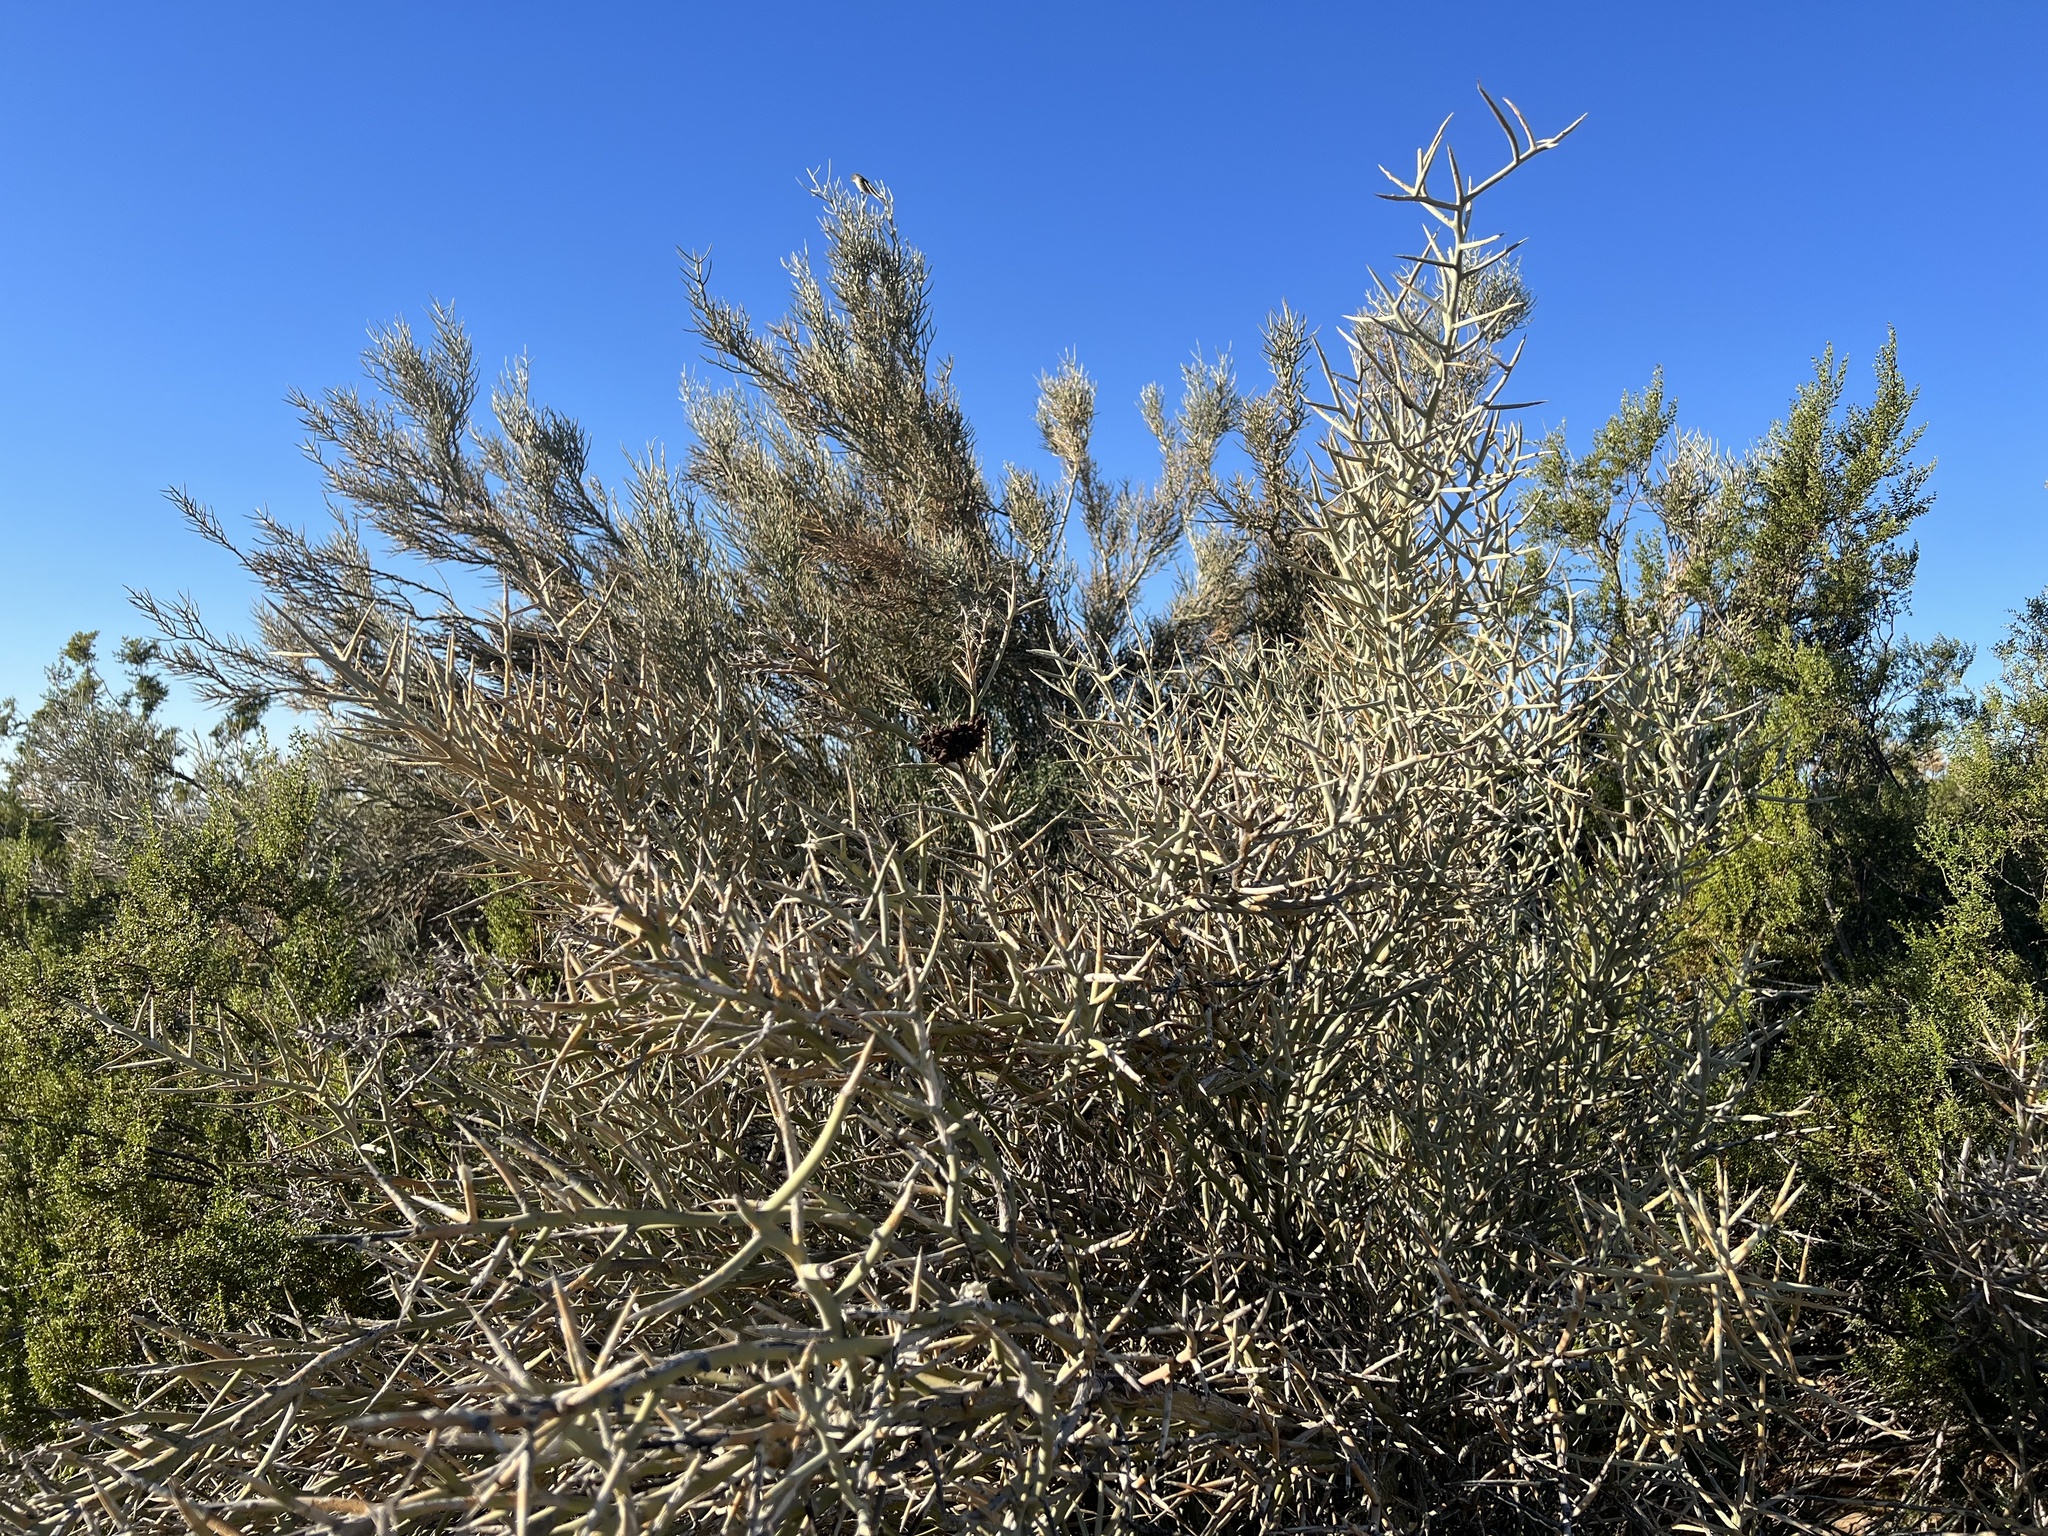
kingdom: Plantae
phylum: Tracheophyta
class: Magnoliopsida
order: Sapindales
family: Simaroubaceae
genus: Holacantha
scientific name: Holacantha emoryi
